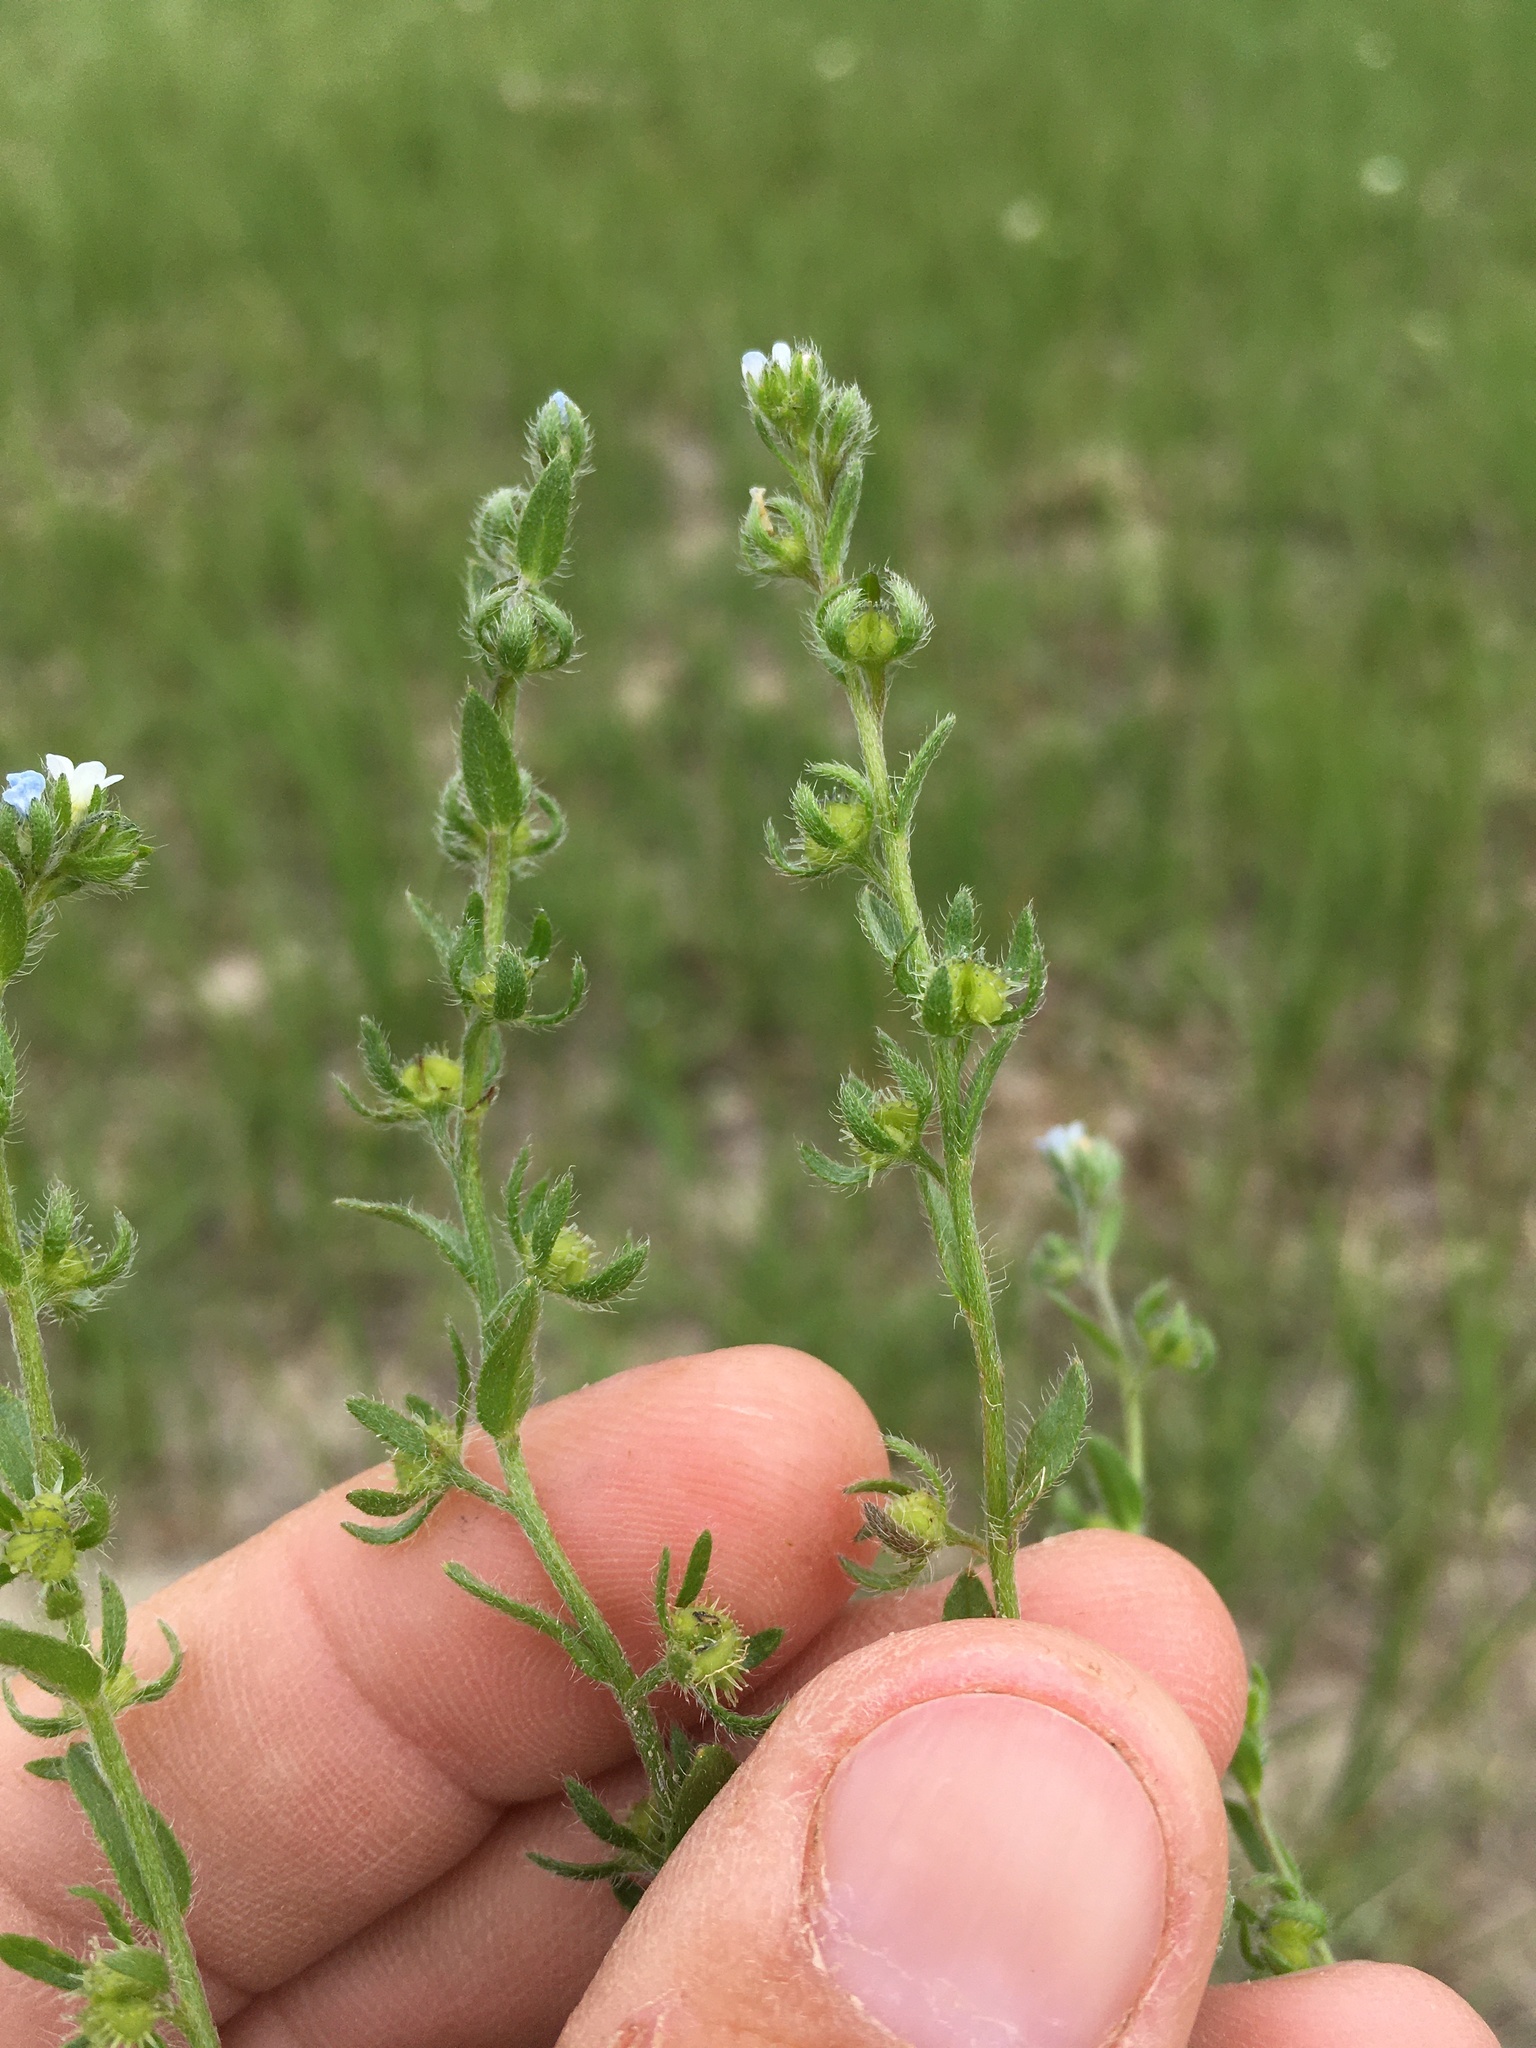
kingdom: Plantae
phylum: Tracheophyta
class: Magnoliopsida
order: Boraginales
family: Boraginaceae
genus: Lappula
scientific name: Lappula occidentalis
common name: Western stickseed
